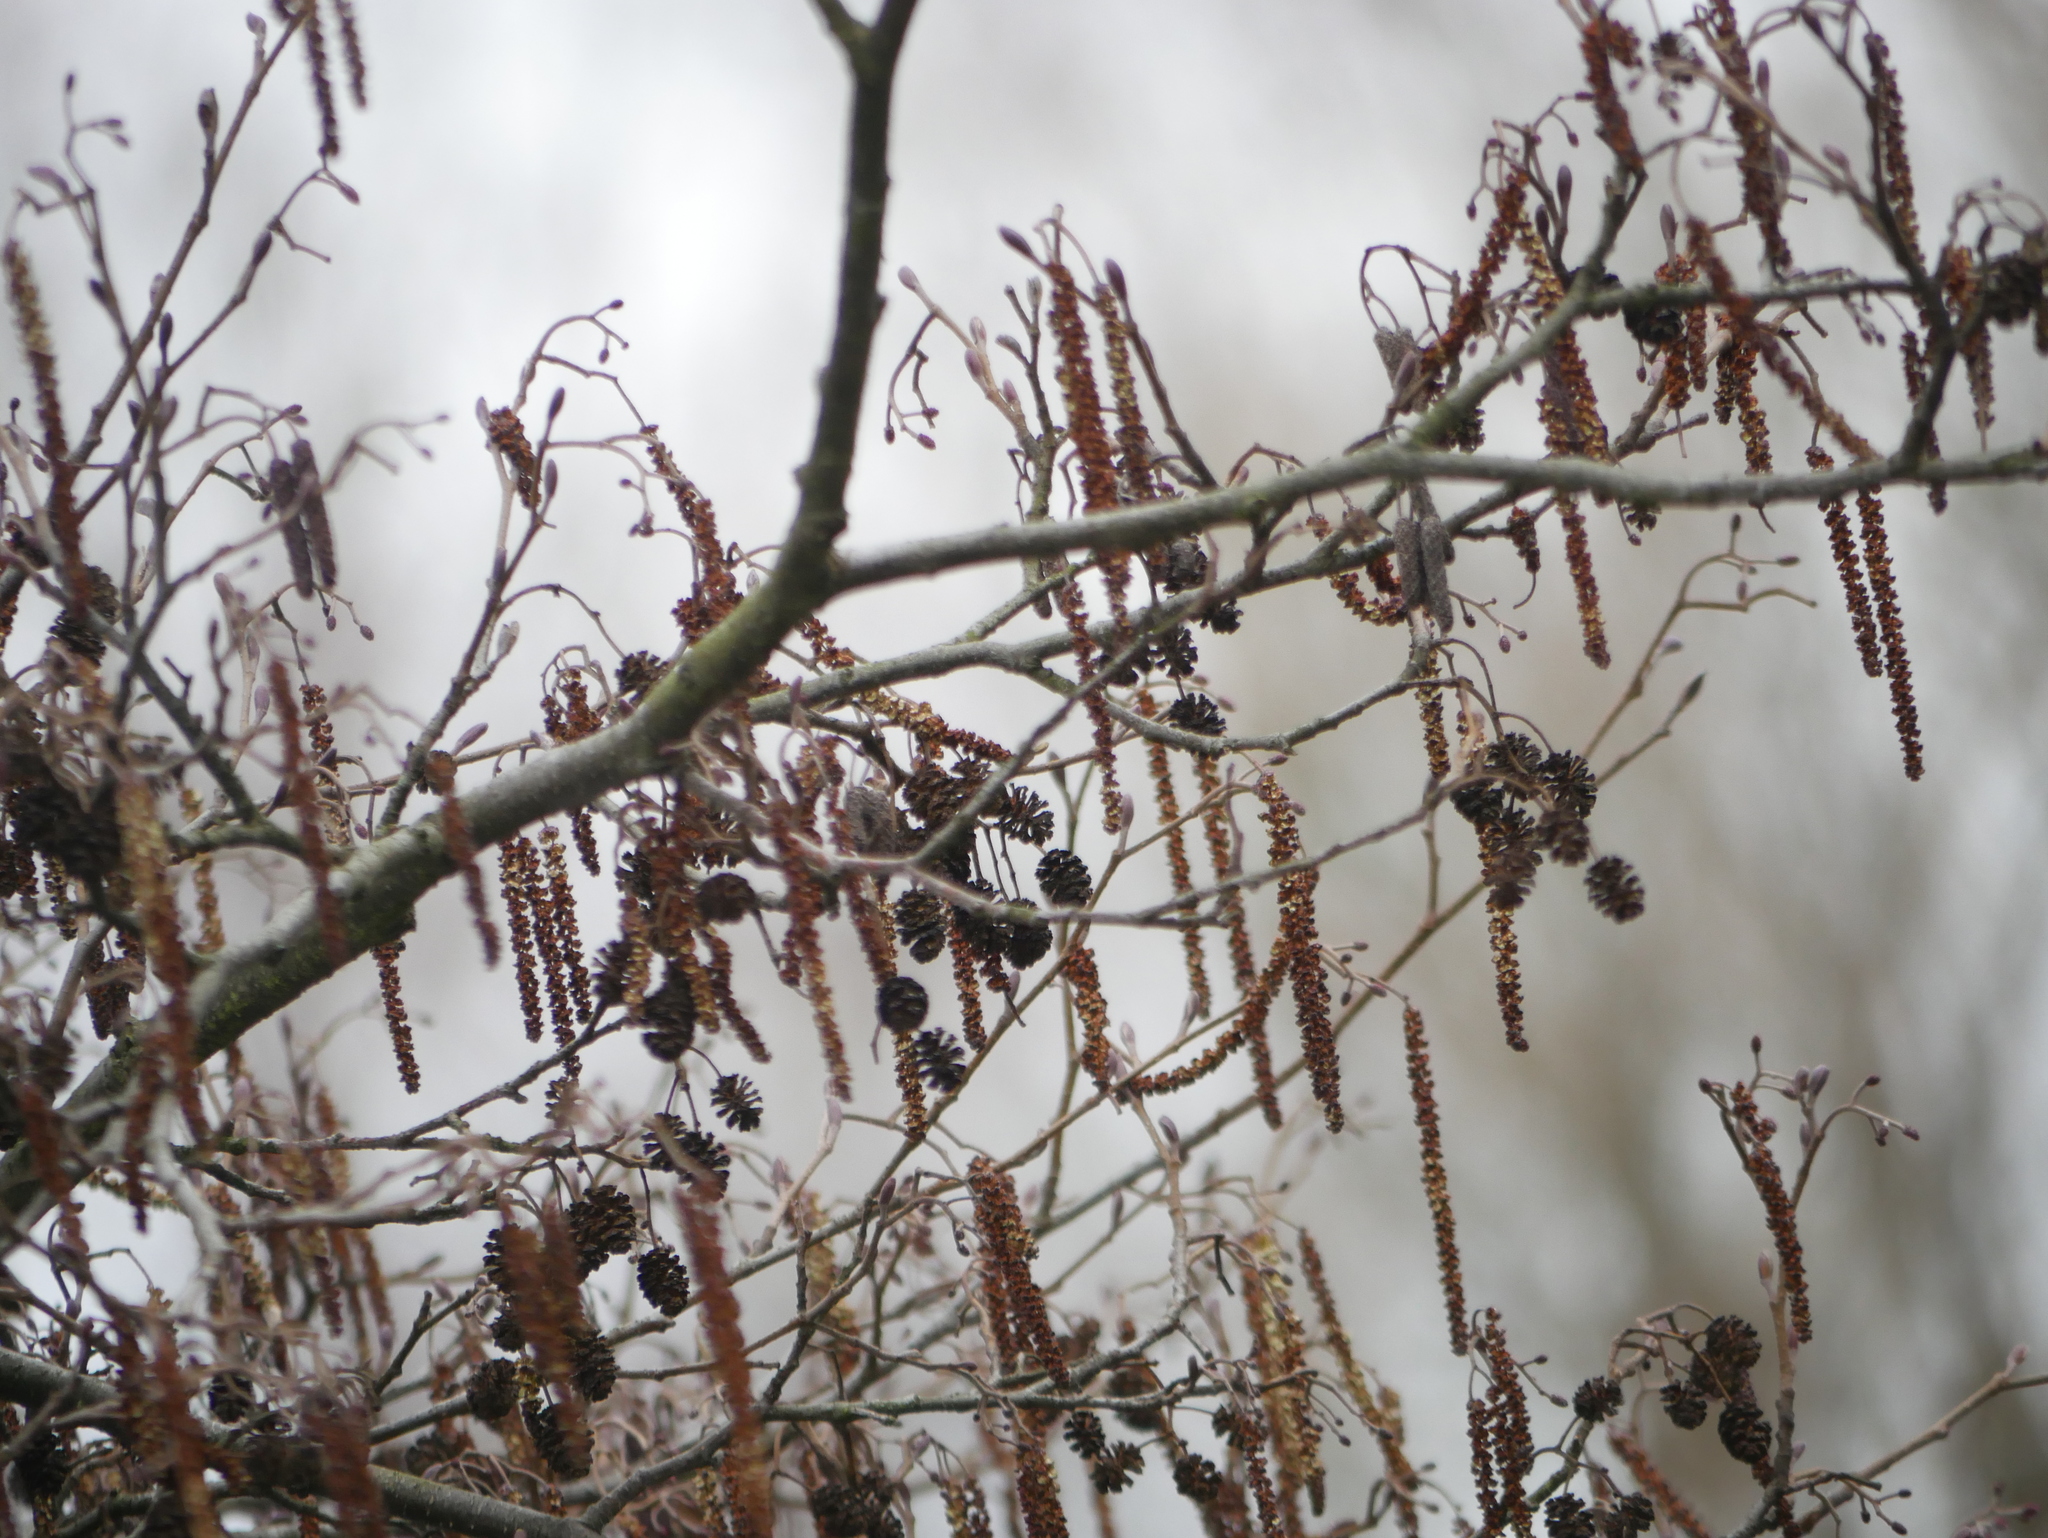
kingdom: Plantae
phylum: Tracheophyta
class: Magnoliopsida
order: Fagales
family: Betulaceae
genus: Alnus
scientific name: Alnus glutinosa
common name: Black alder
